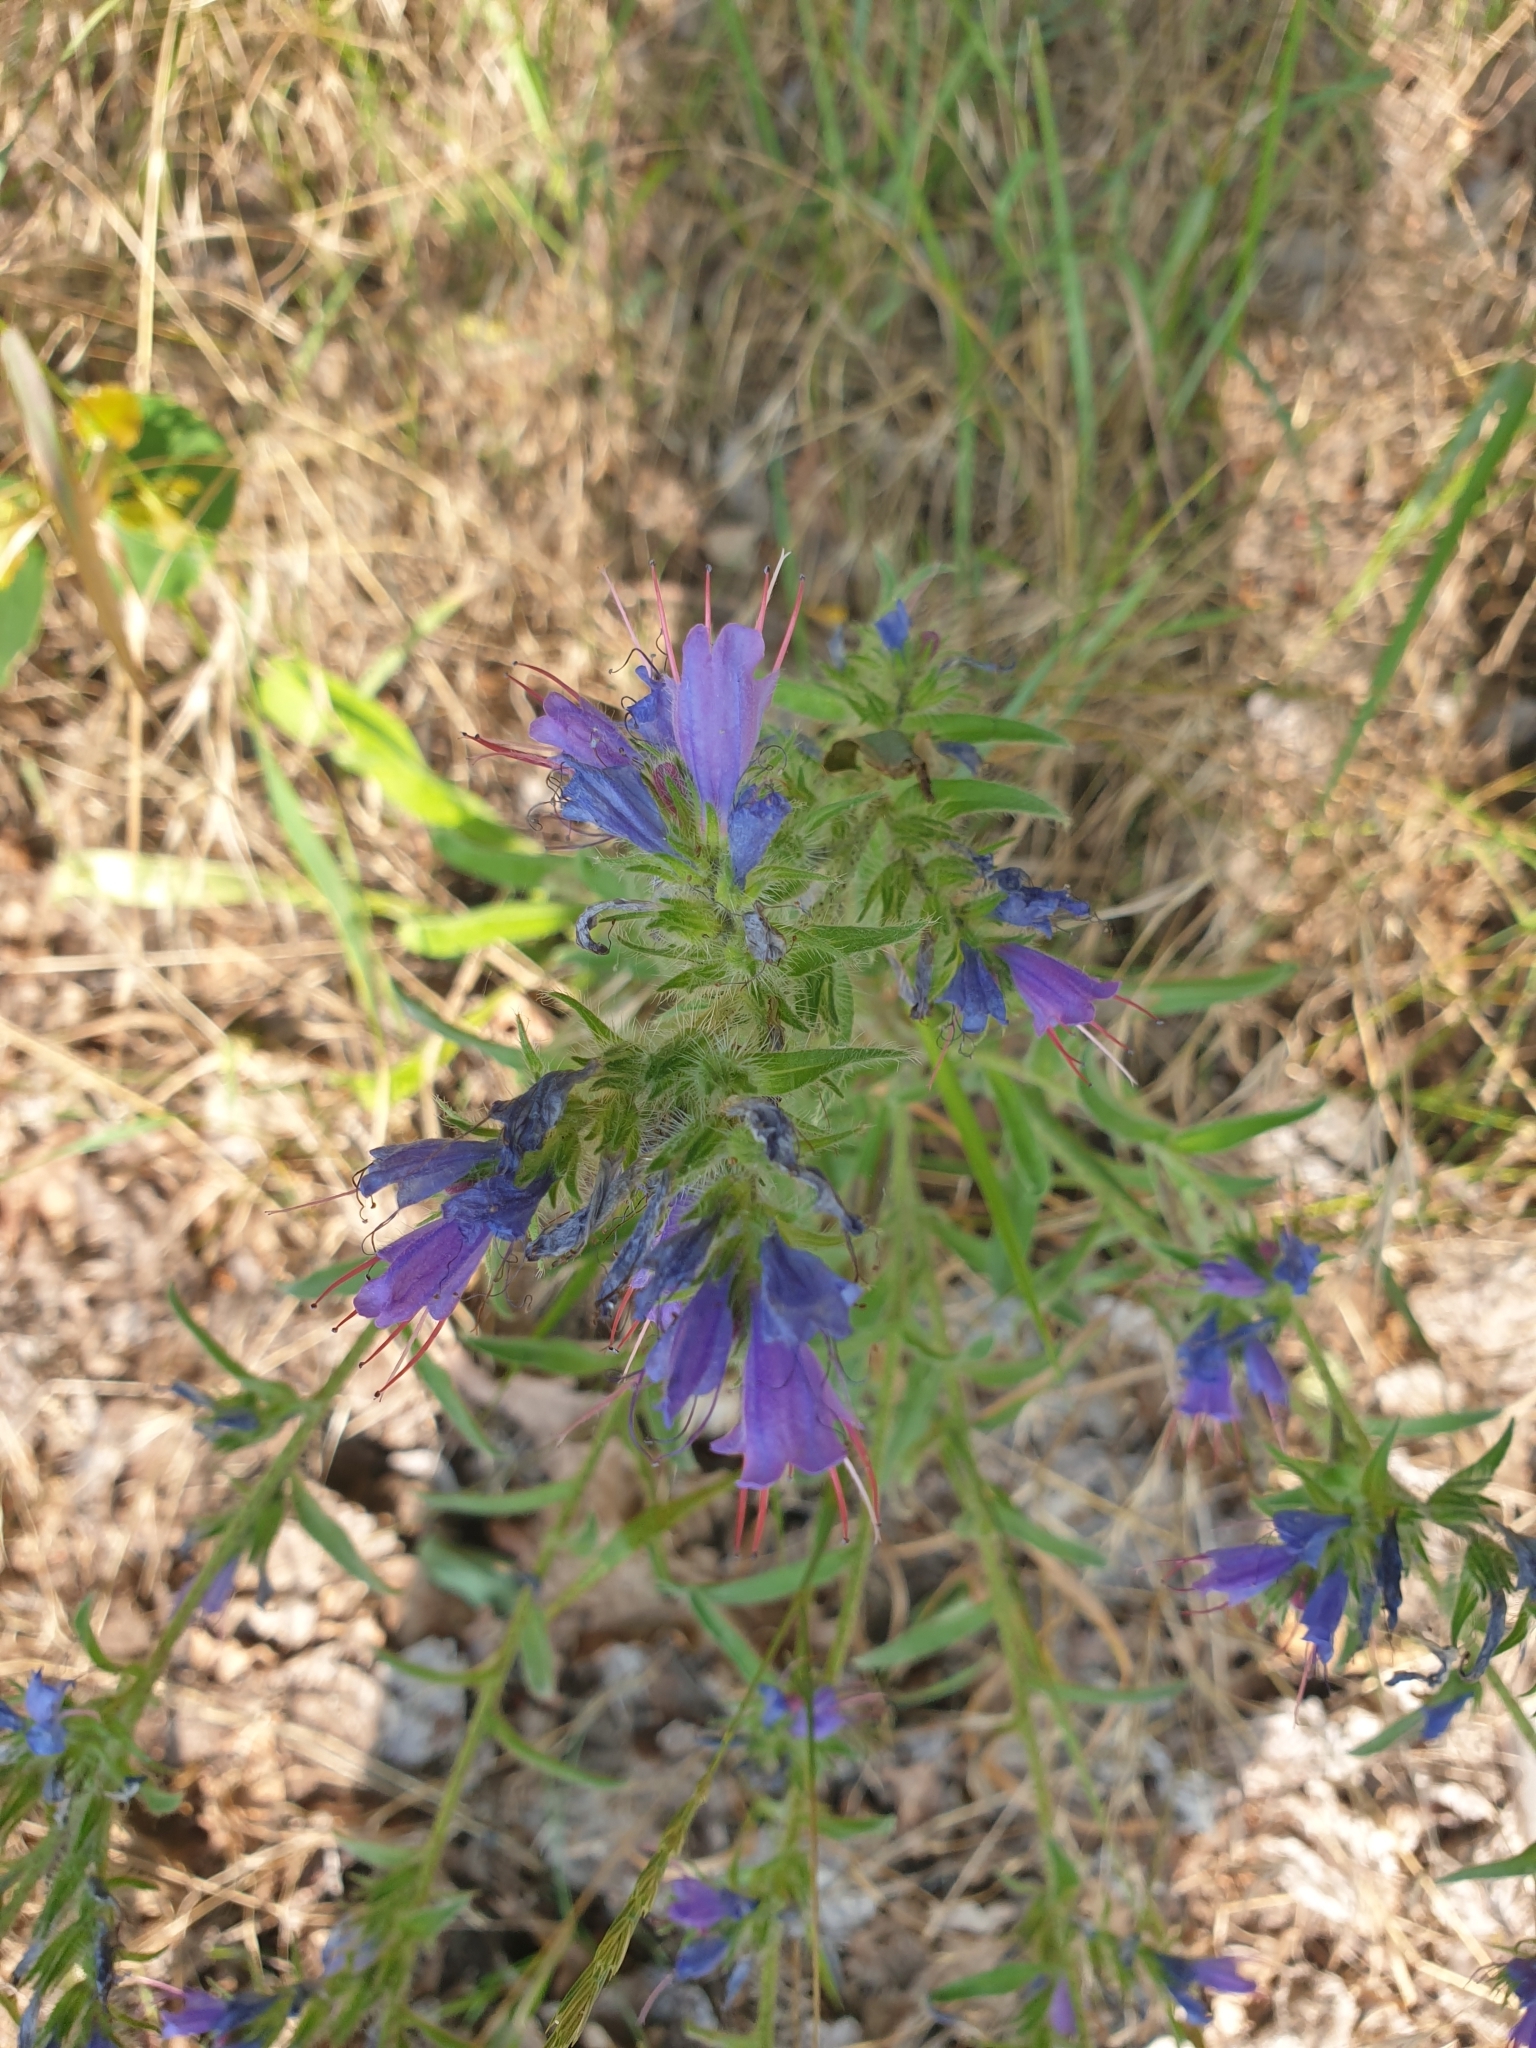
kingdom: Plantae
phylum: Tracheophyta
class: Magnoliopsida
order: Boraginales
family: Boraginaceae
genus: Echium
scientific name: Echium vulgare
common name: Common viper's bugloss
